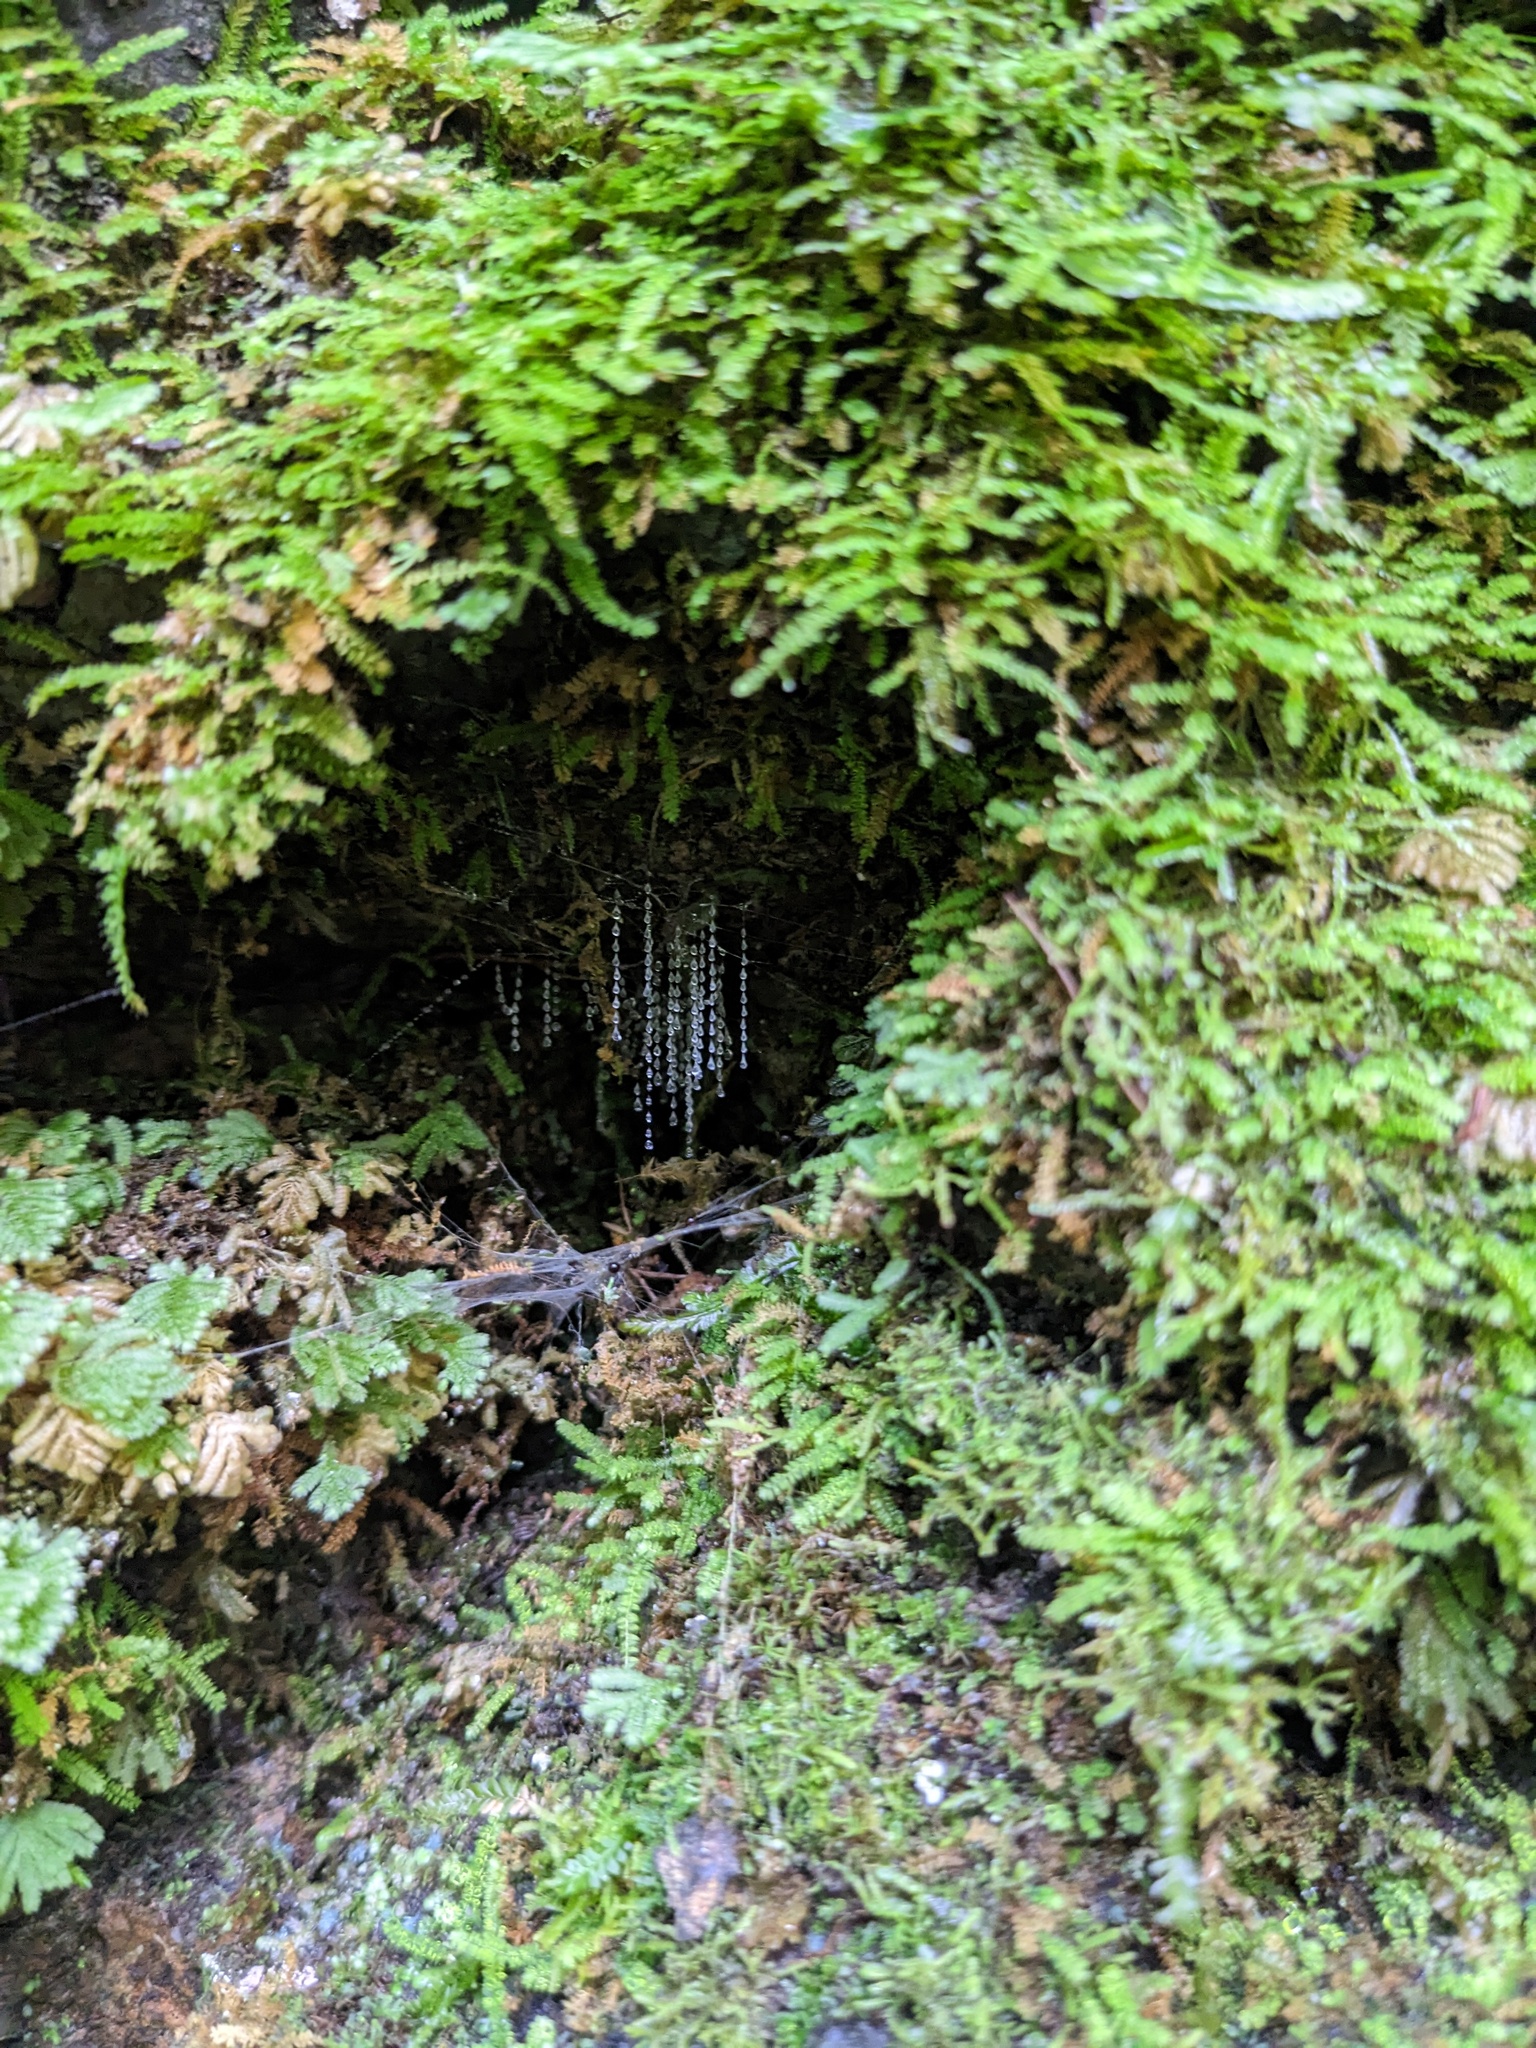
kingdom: Animalia
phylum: Arthropoda
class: Insecta
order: Diptera
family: Keroplatidae
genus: Arachnocampa
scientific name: Arachnocampa luminosa
